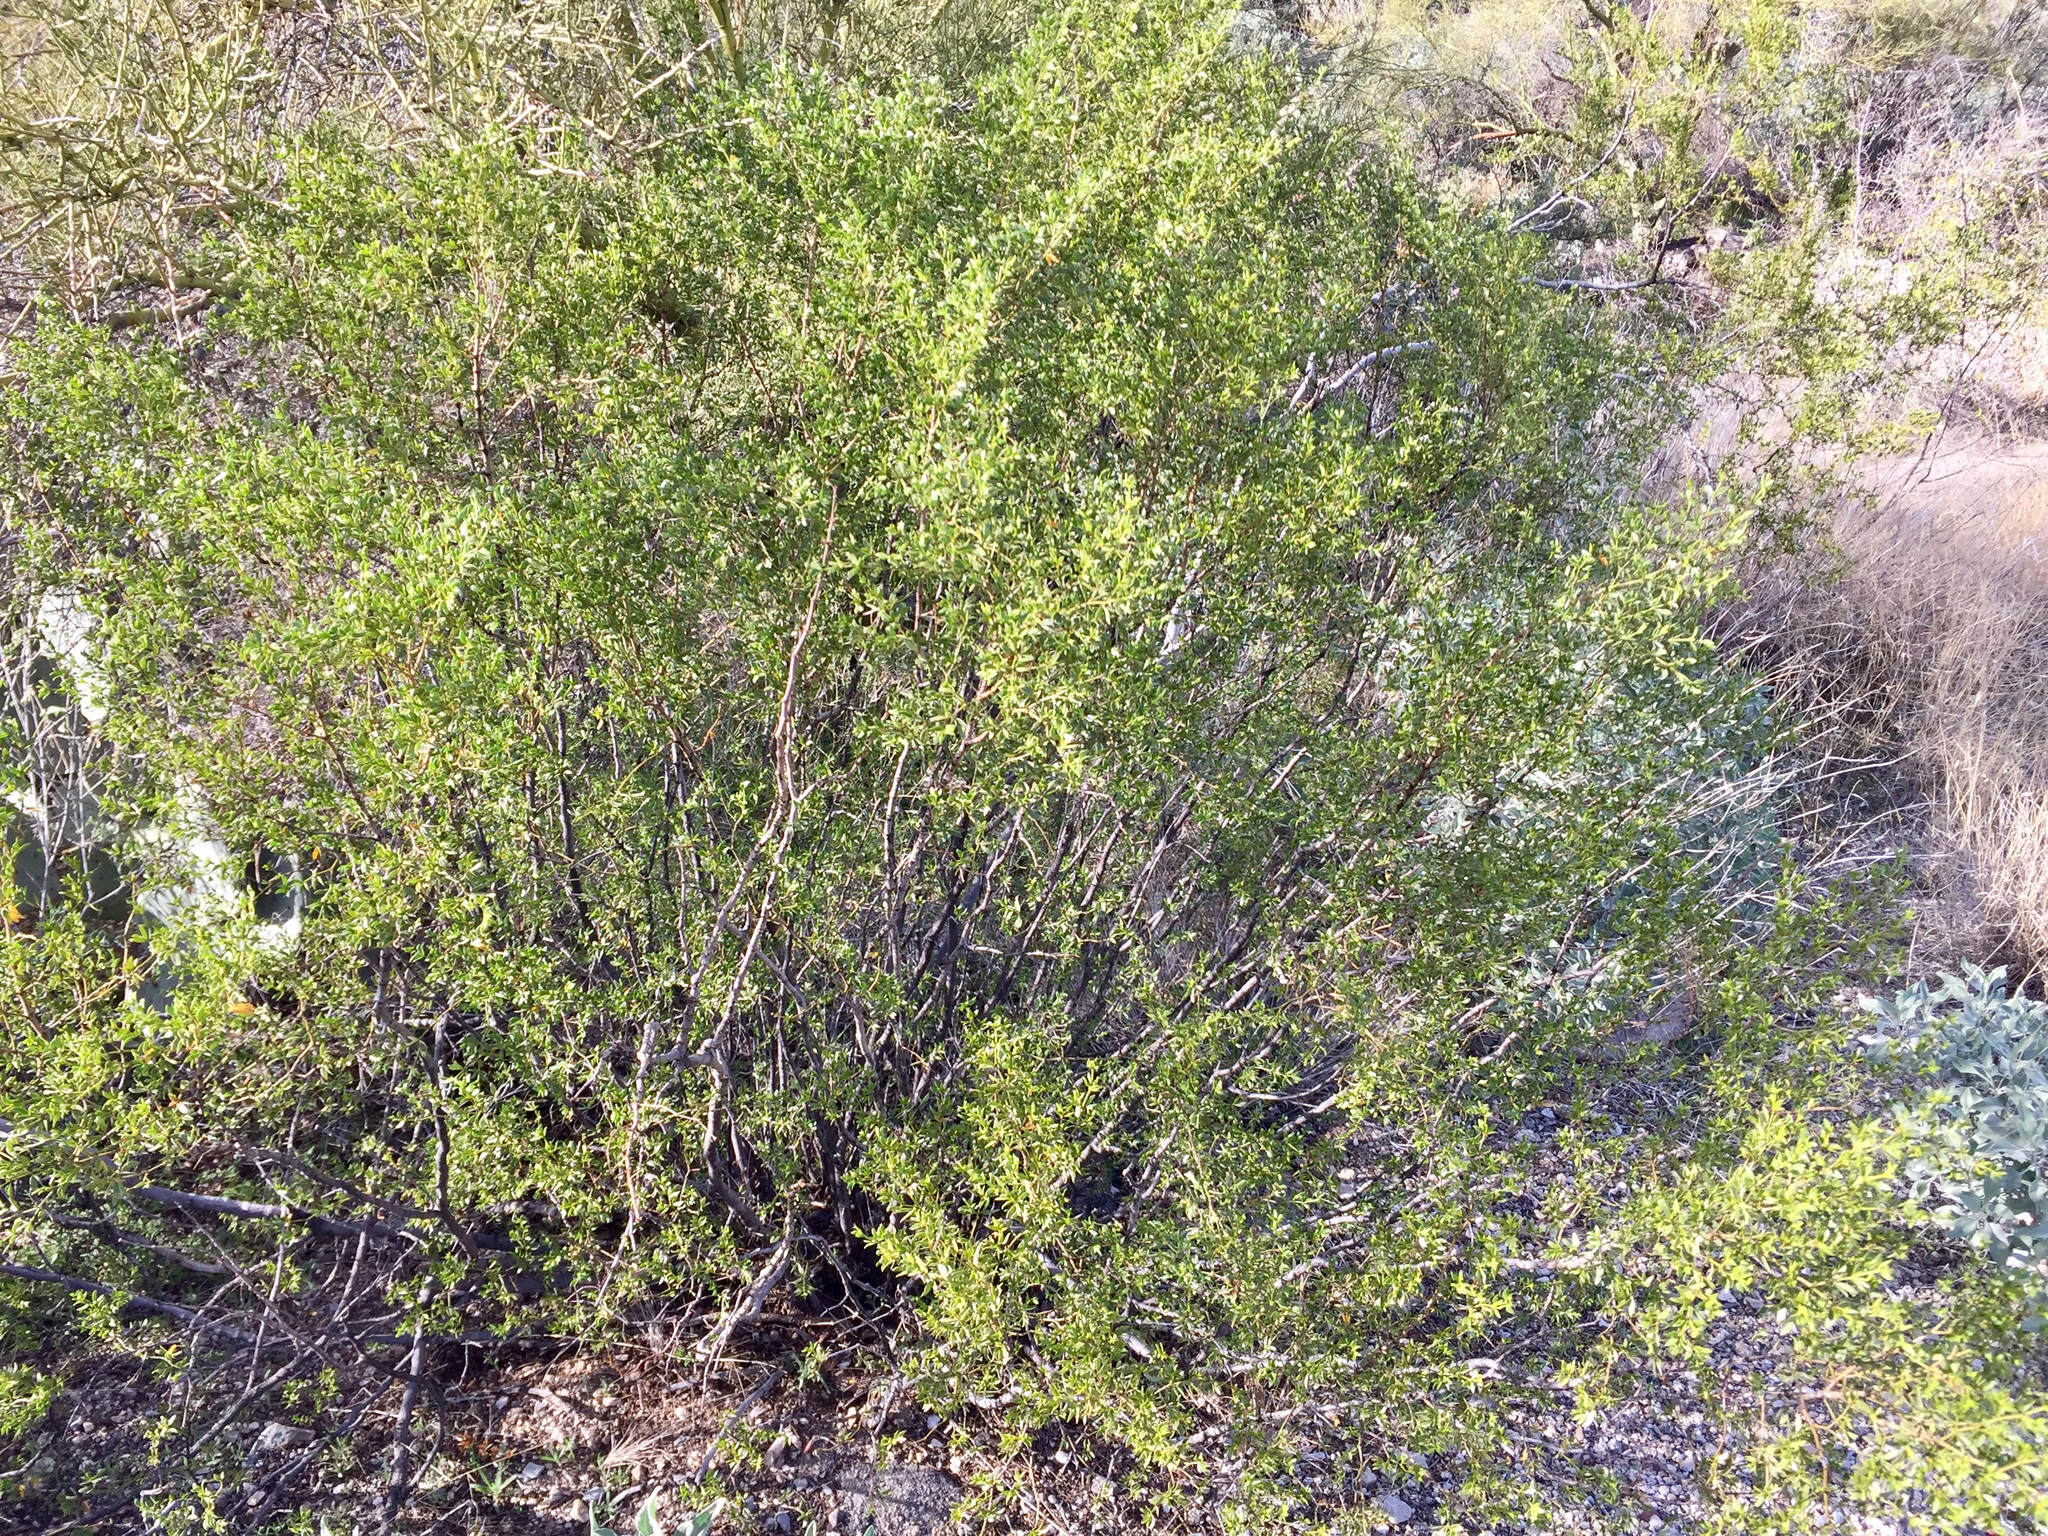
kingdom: Plantae
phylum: Tracheophyta
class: Magnoliopsida
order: Zygophyllales
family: Zygophyllaceae
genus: Larrea
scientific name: Larrea tridentata
